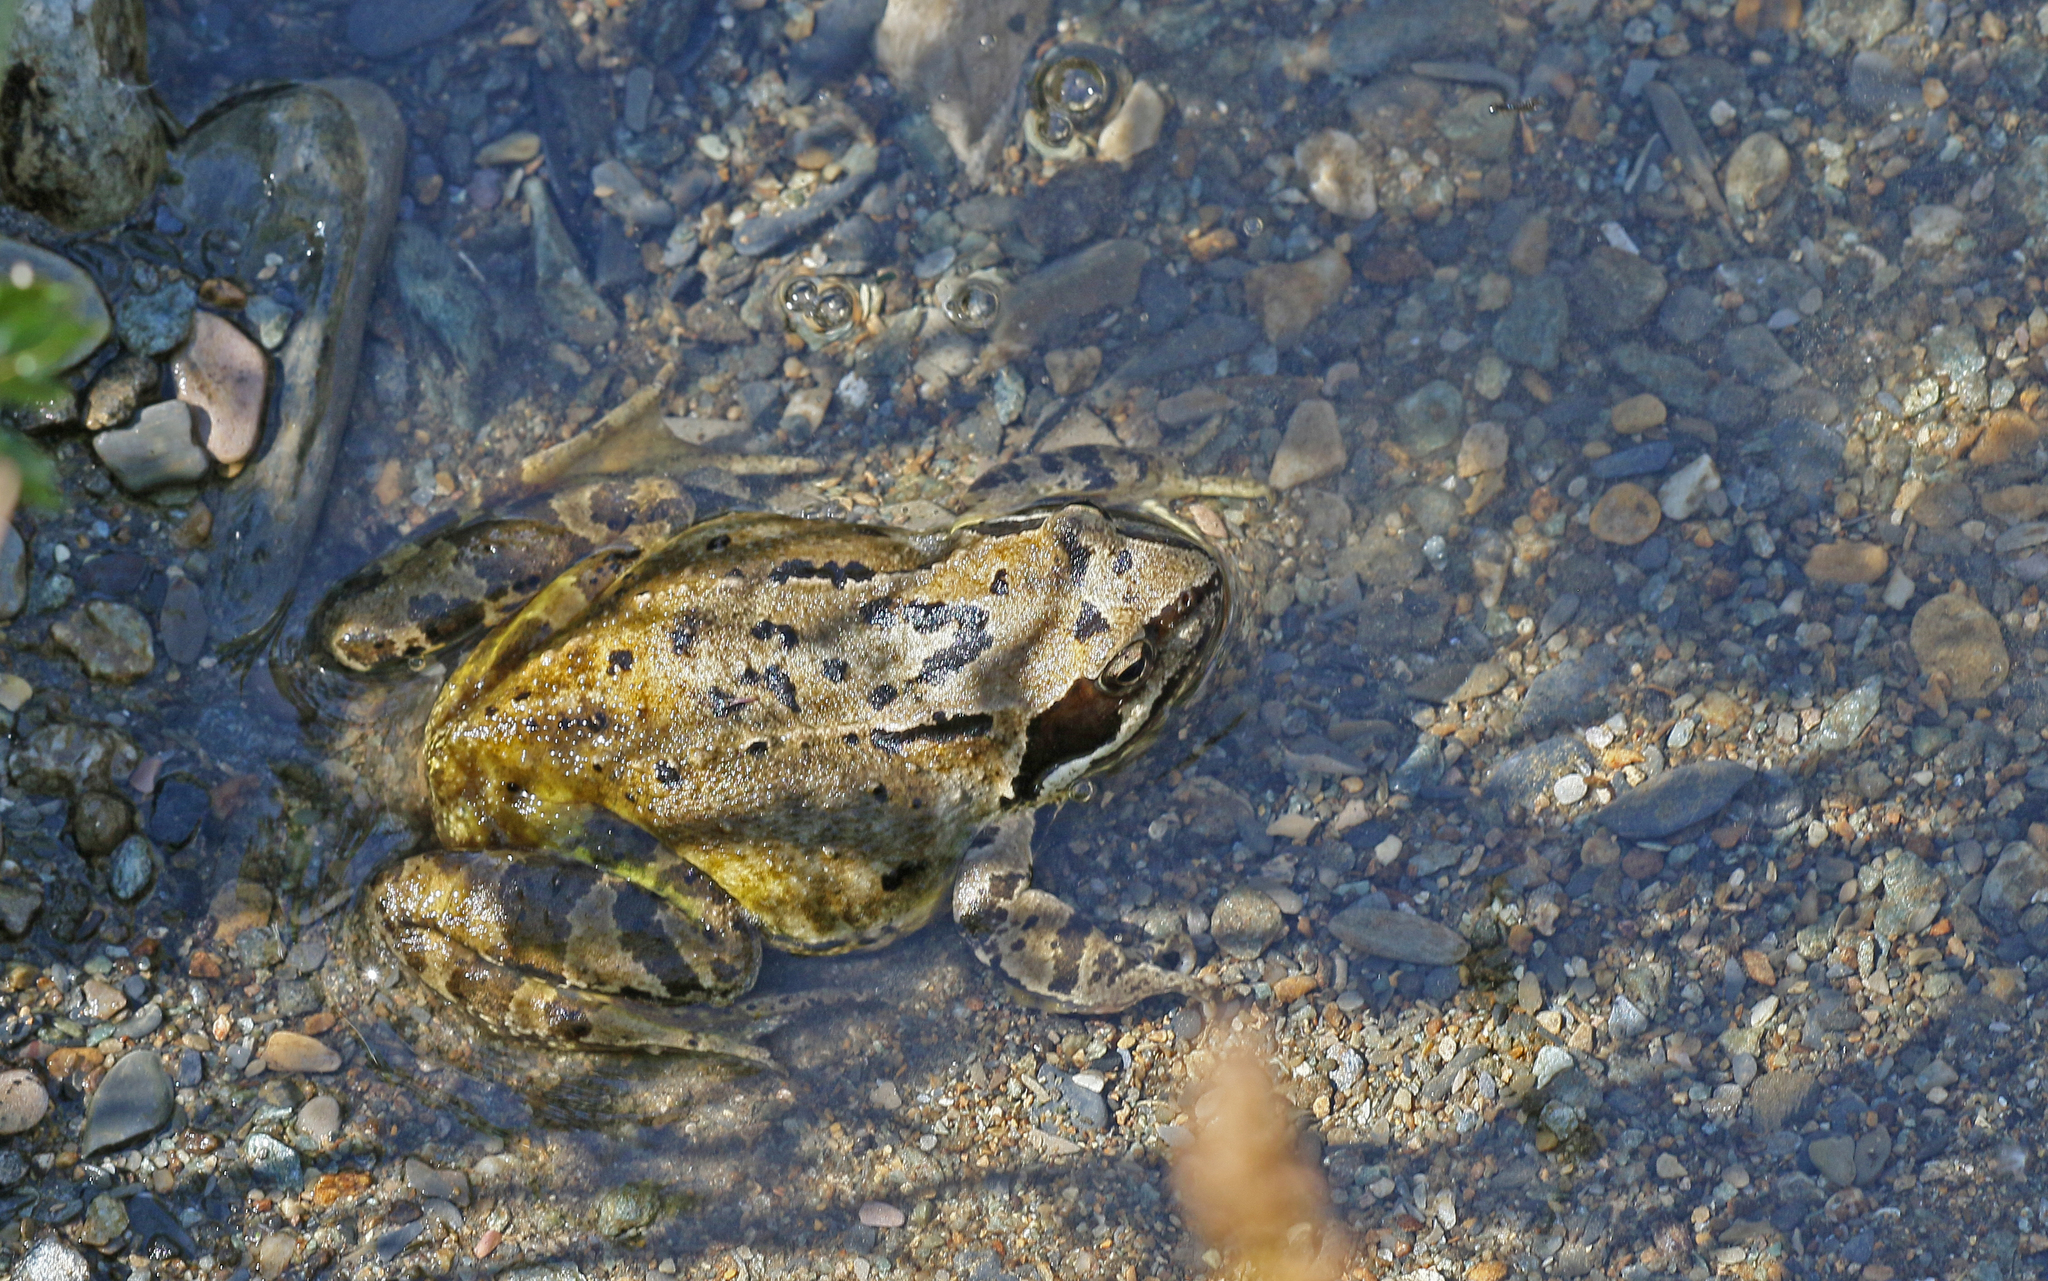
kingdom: Animalia
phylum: Chordata
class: Amphibia
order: Anura
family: Ranidae
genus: Rana
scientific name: Rana temporaria
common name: Common frog
